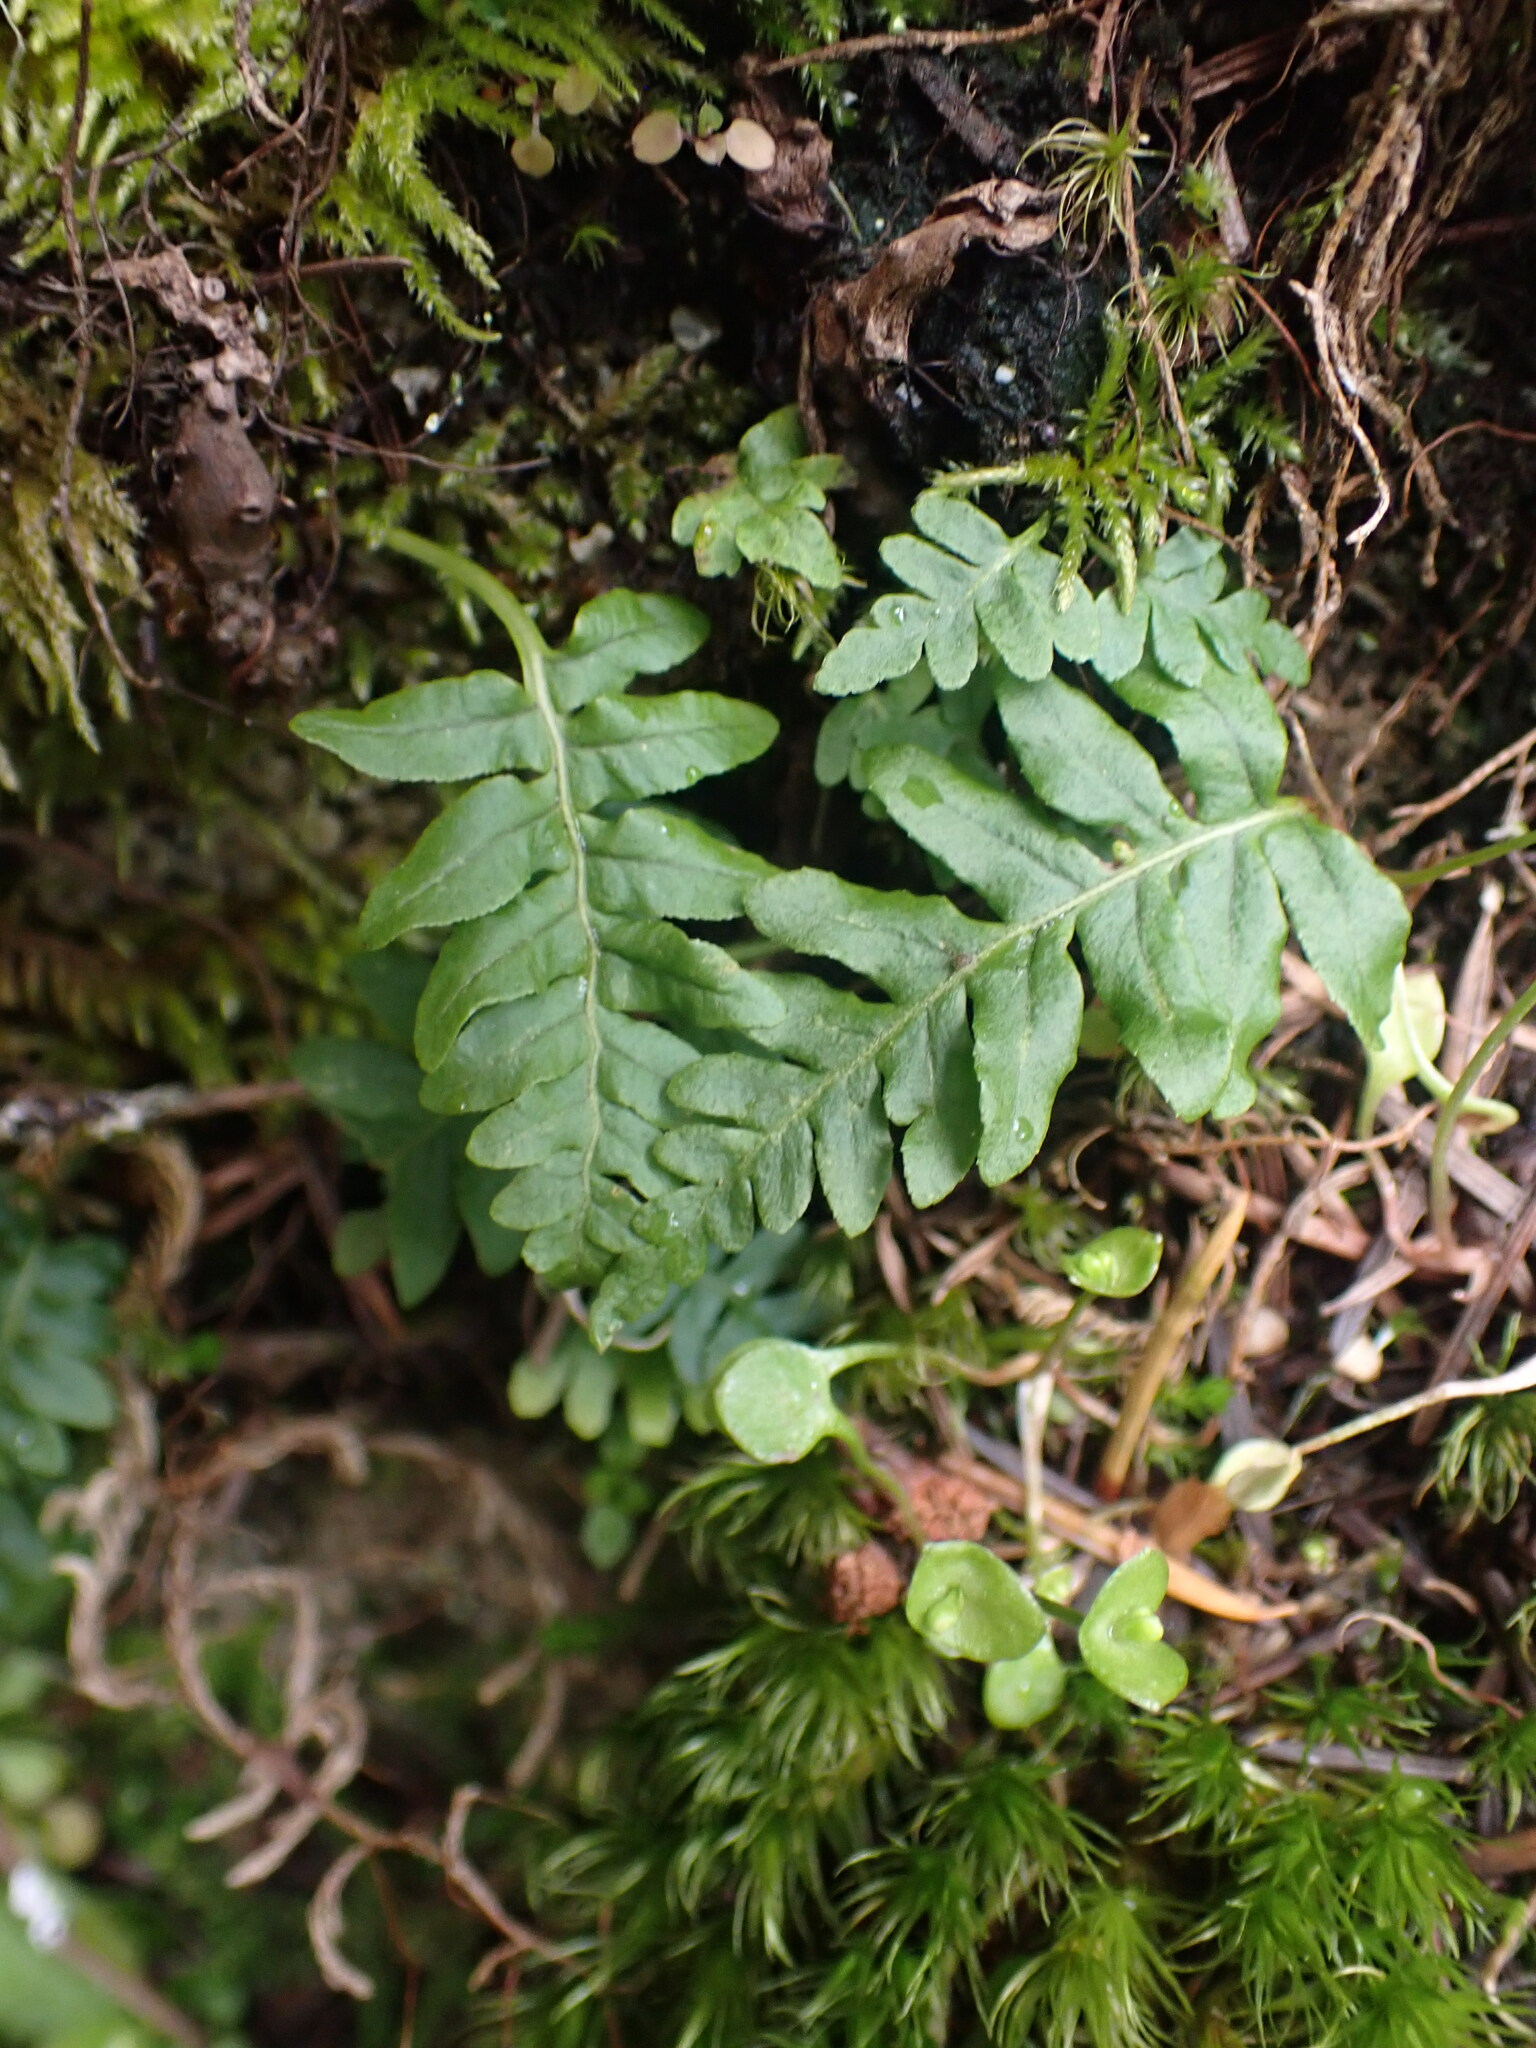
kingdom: Plantae
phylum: Tracheophyta
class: Polypodiopsida
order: Polypodiales
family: Polypodiaceae
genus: Polypodium
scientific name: Polypodium glycyrrhiza
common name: Licorice fern
